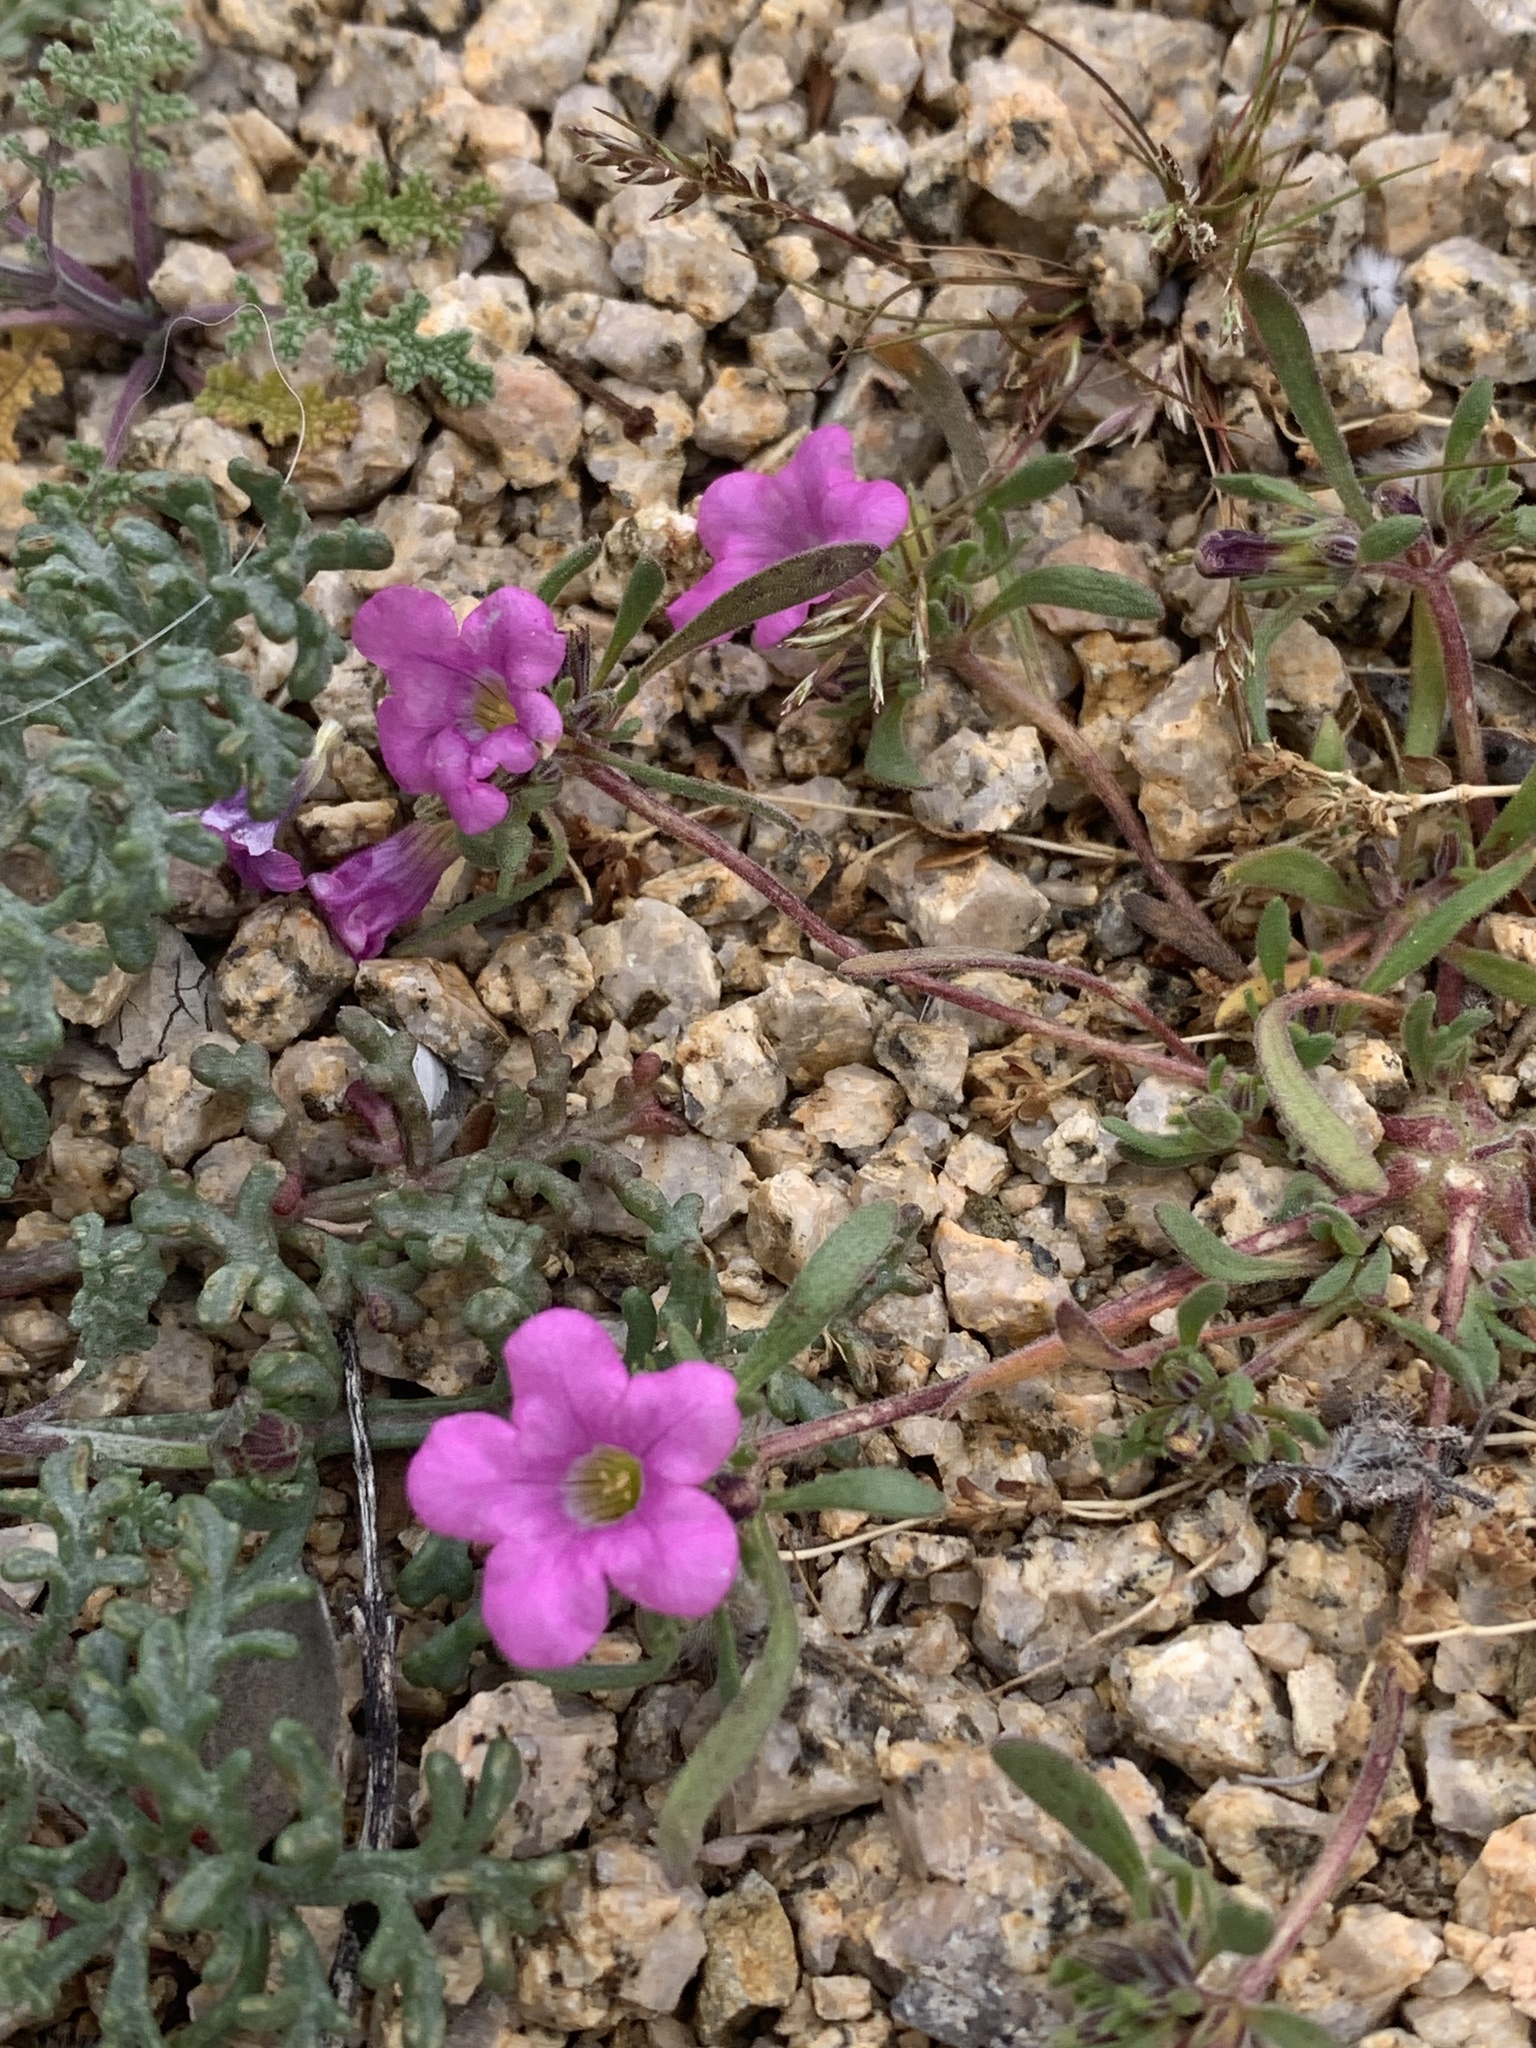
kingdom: Plantae
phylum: Tracheophyta
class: Magnoliopsida
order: Boraginales
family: Namaceae
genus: Nama
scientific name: Nama demissa
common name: Leafy nama
